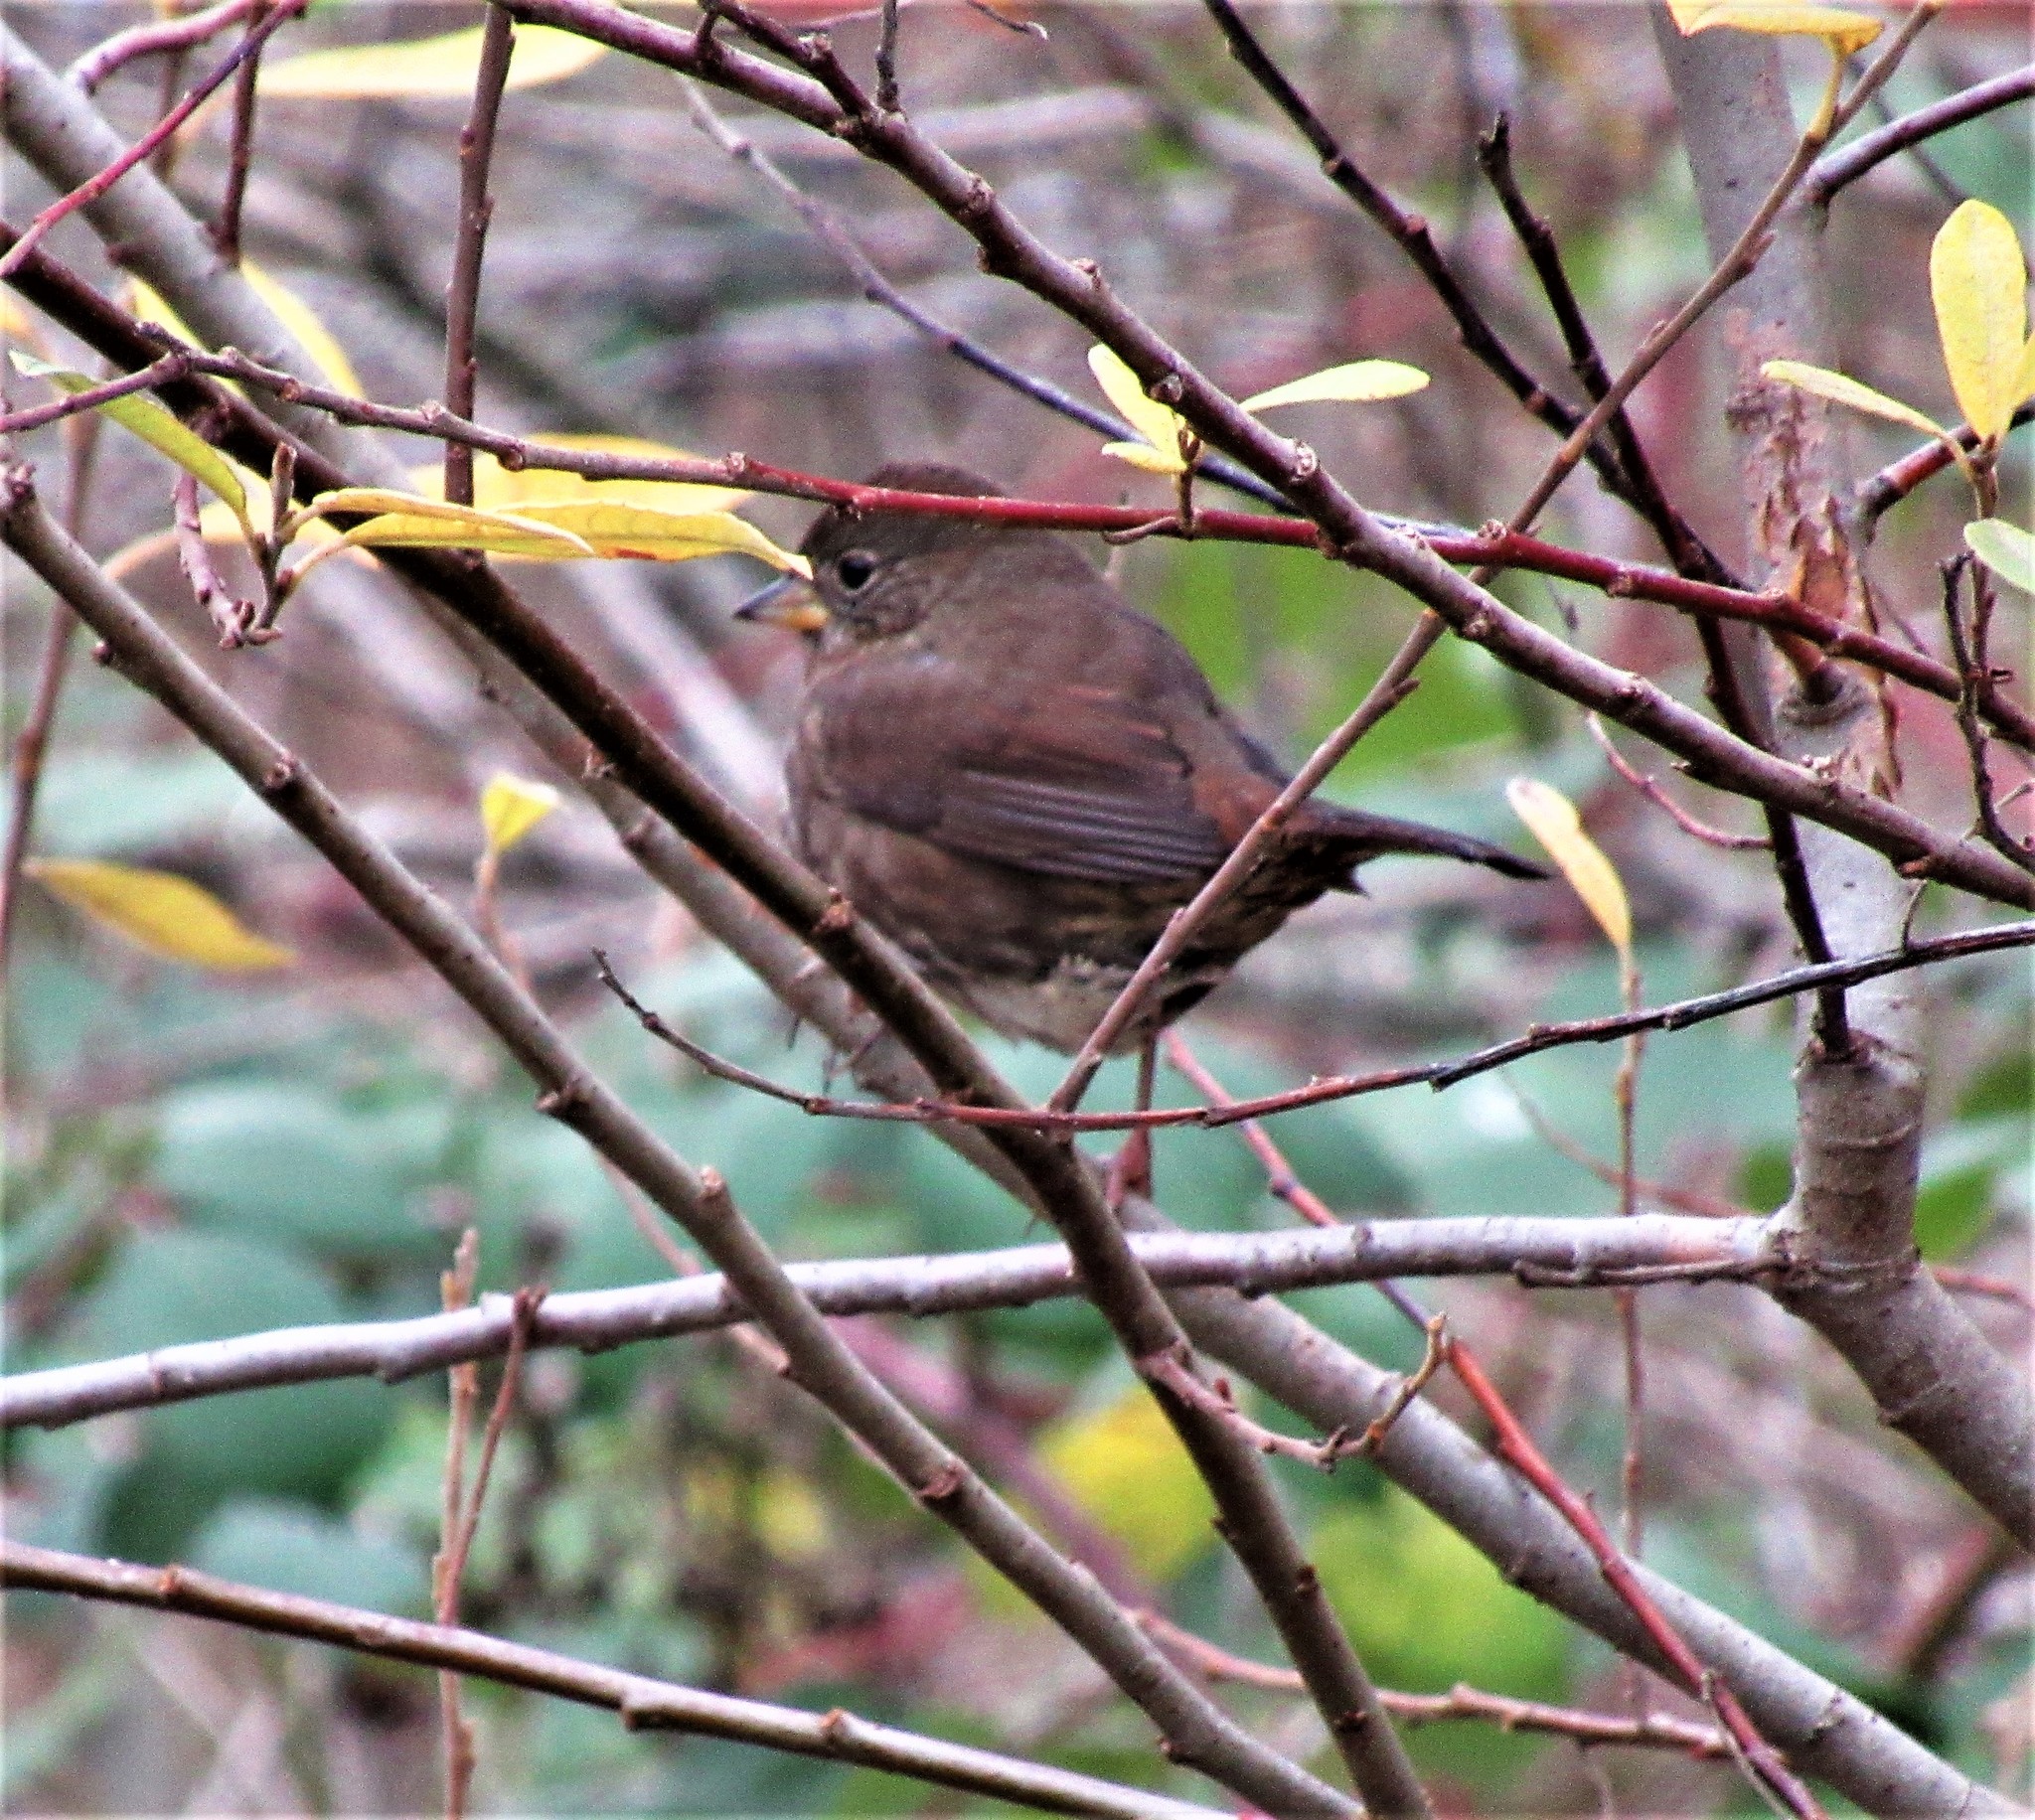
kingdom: Animalia
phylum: Chordata
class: Aves
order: Passeriformes
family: Passerellidae
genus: Passerella
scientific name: Passerella iliaca
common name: Fox sparrow
